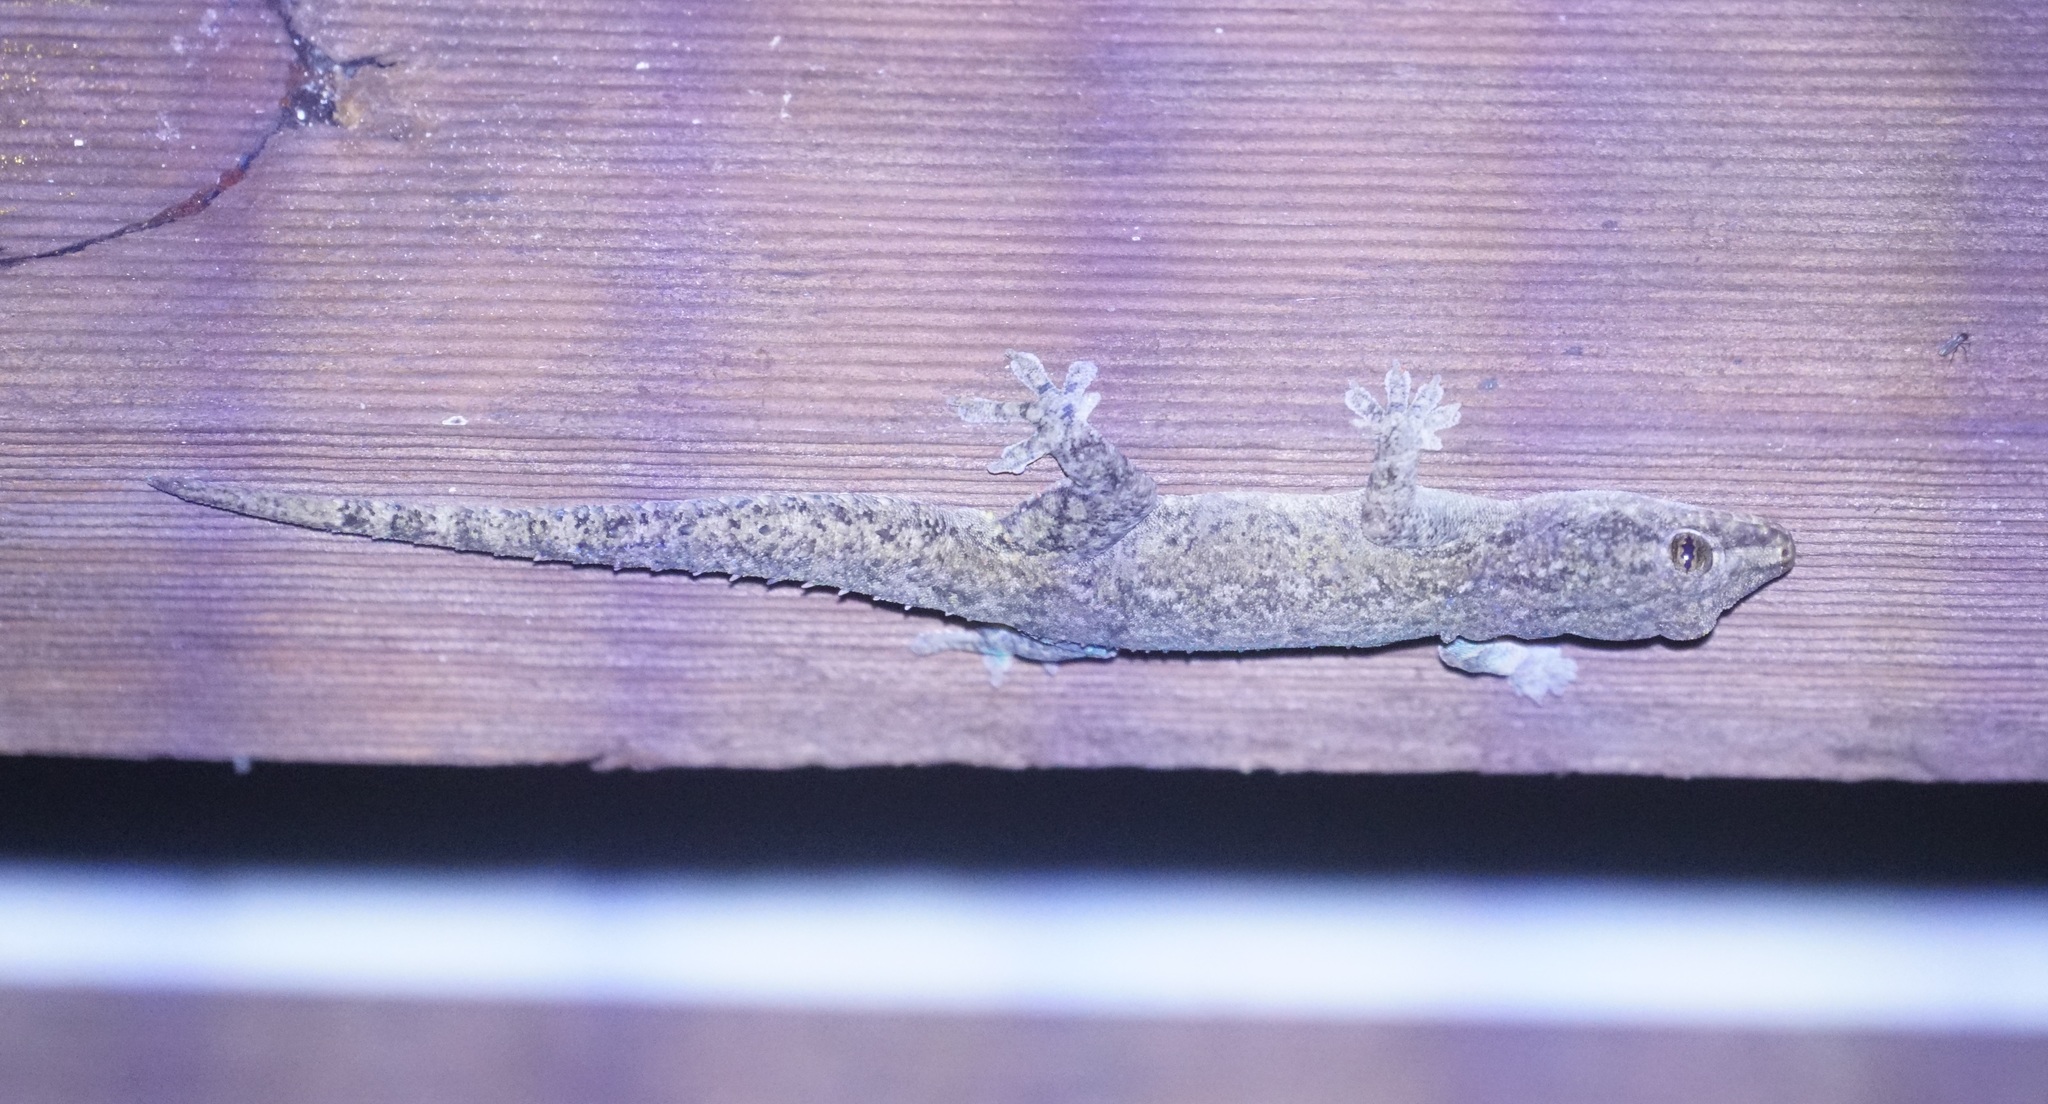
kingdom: Animalia
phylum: Chordata
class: Squamata
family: Gekkonidae
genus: Hemidactylus
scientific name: Hemidactylus frenatus
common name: Common house gecko
